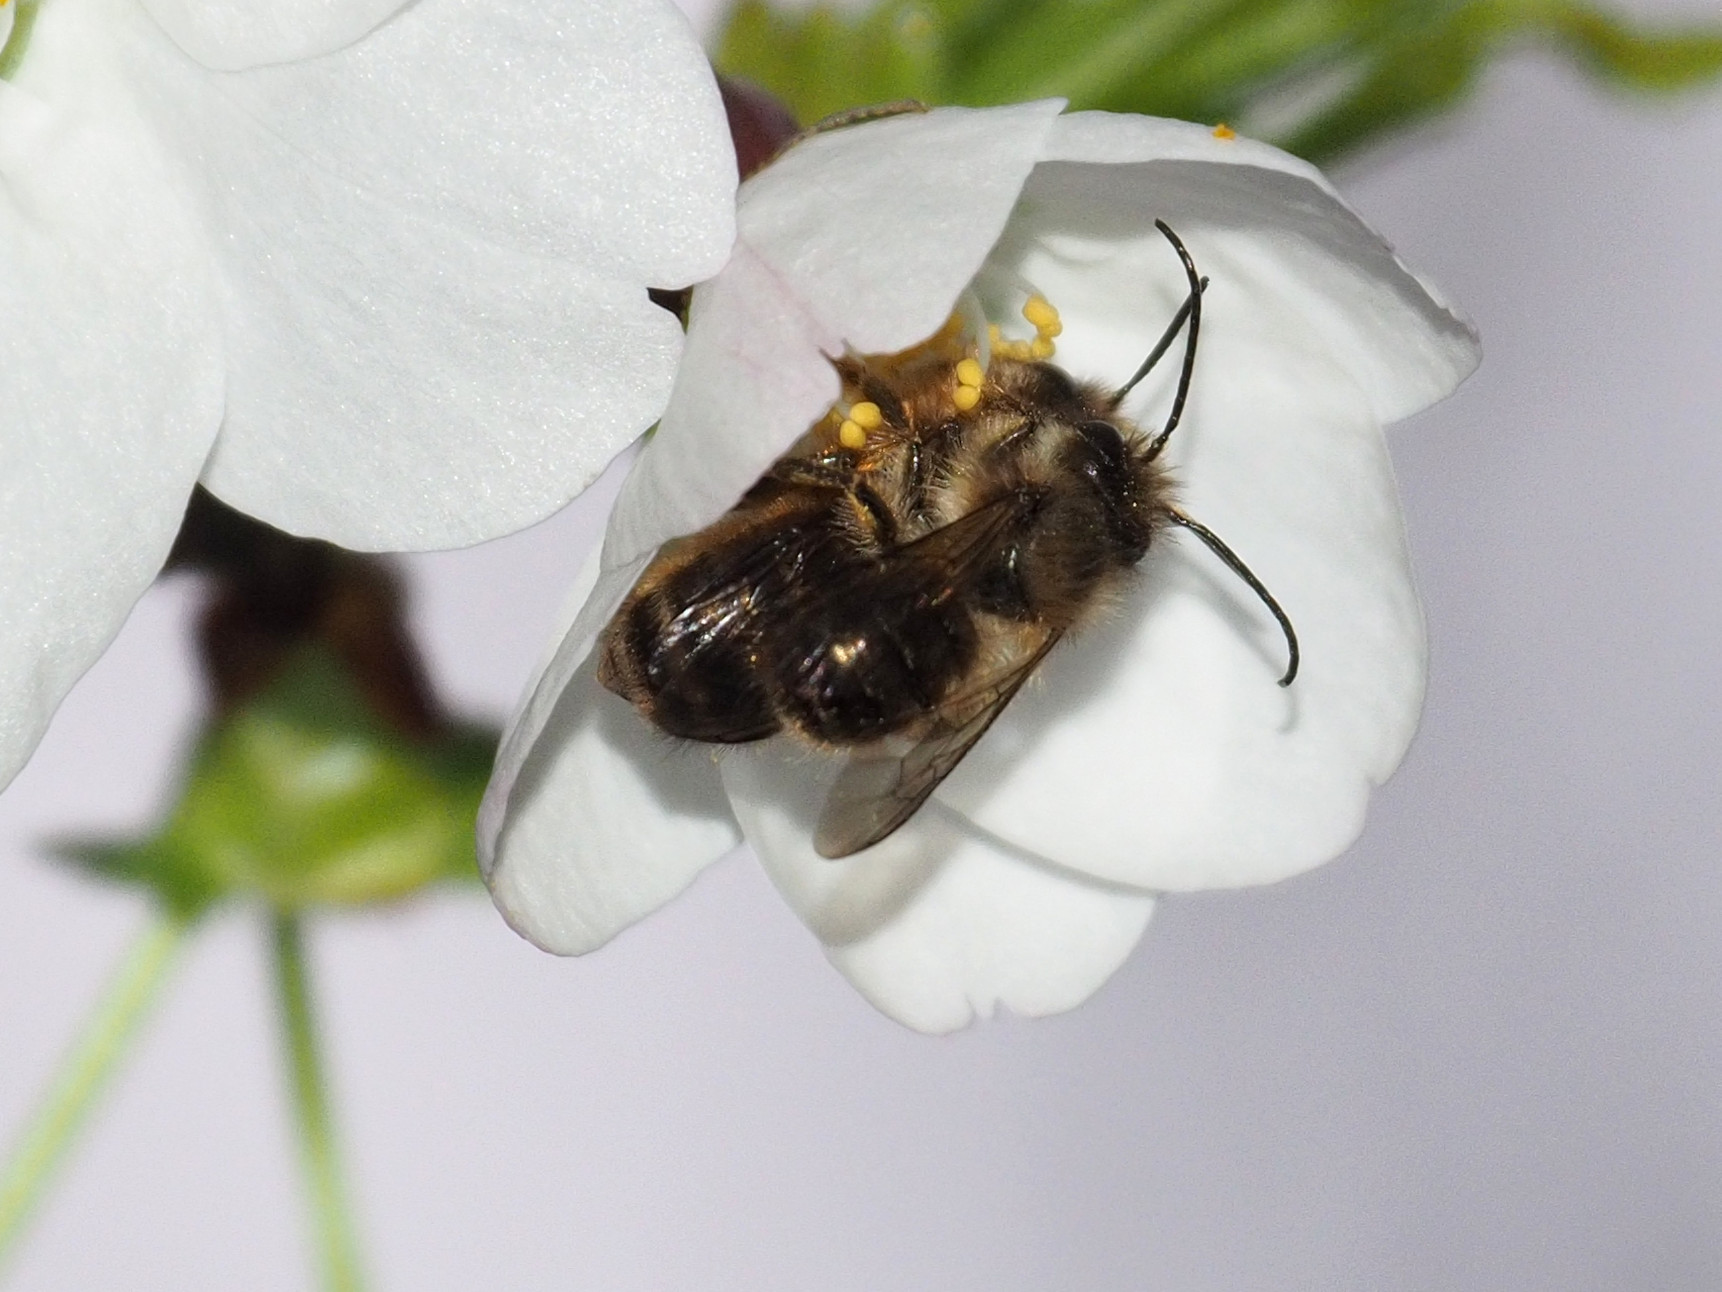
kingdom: Animalia
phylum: Arthropoda
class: Insecta
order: Hymenoptera
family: Megachilidae
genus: Osmia
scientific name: Osmia cornifrons
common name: Horn-faced bee
